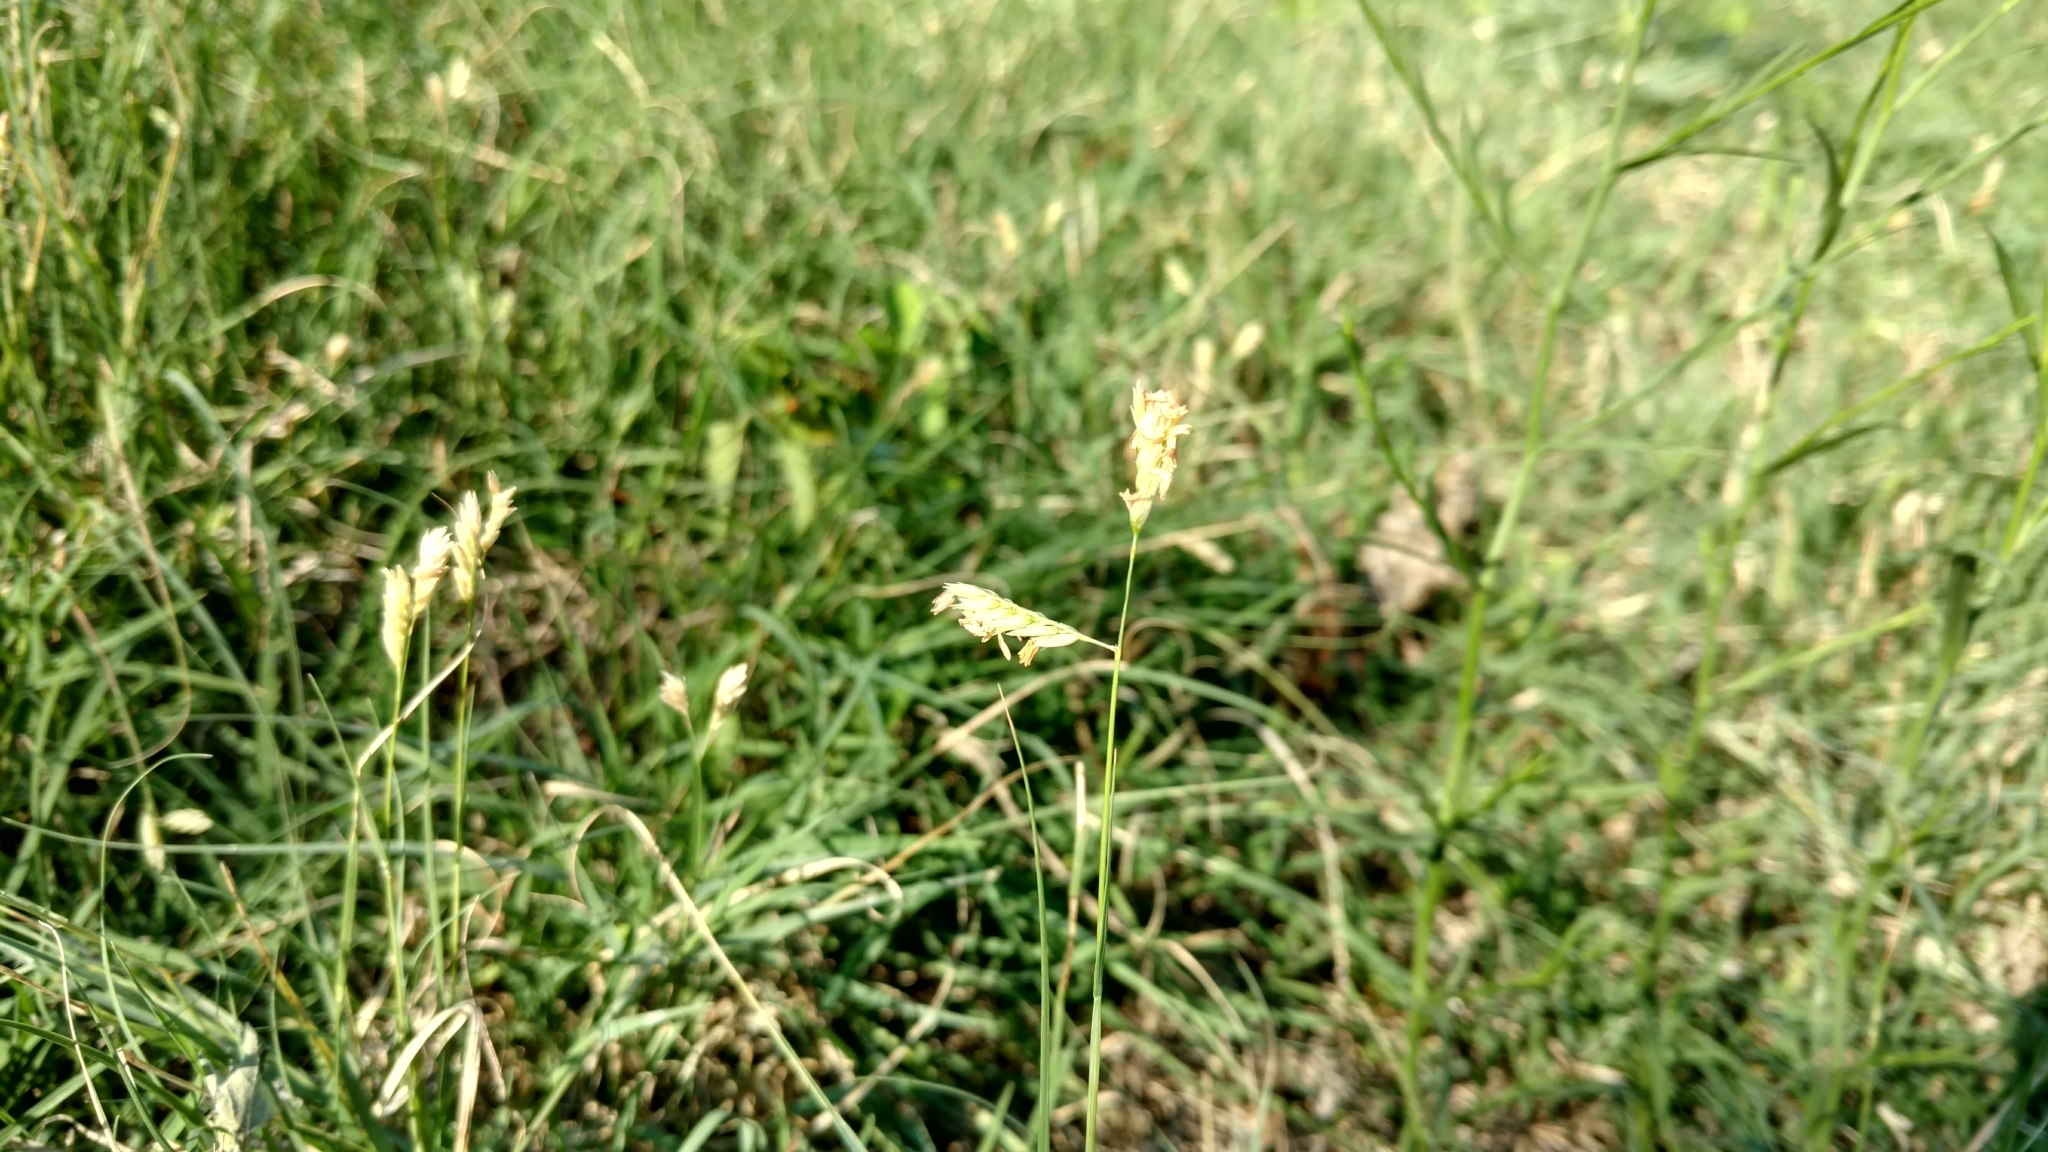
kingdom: Plantae
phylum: Tracheophyta
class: Liliopsida
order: Poales
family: Poaceae
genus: Bouteloua
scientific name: Bouteloua dactyloides
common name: Buffalo grass
